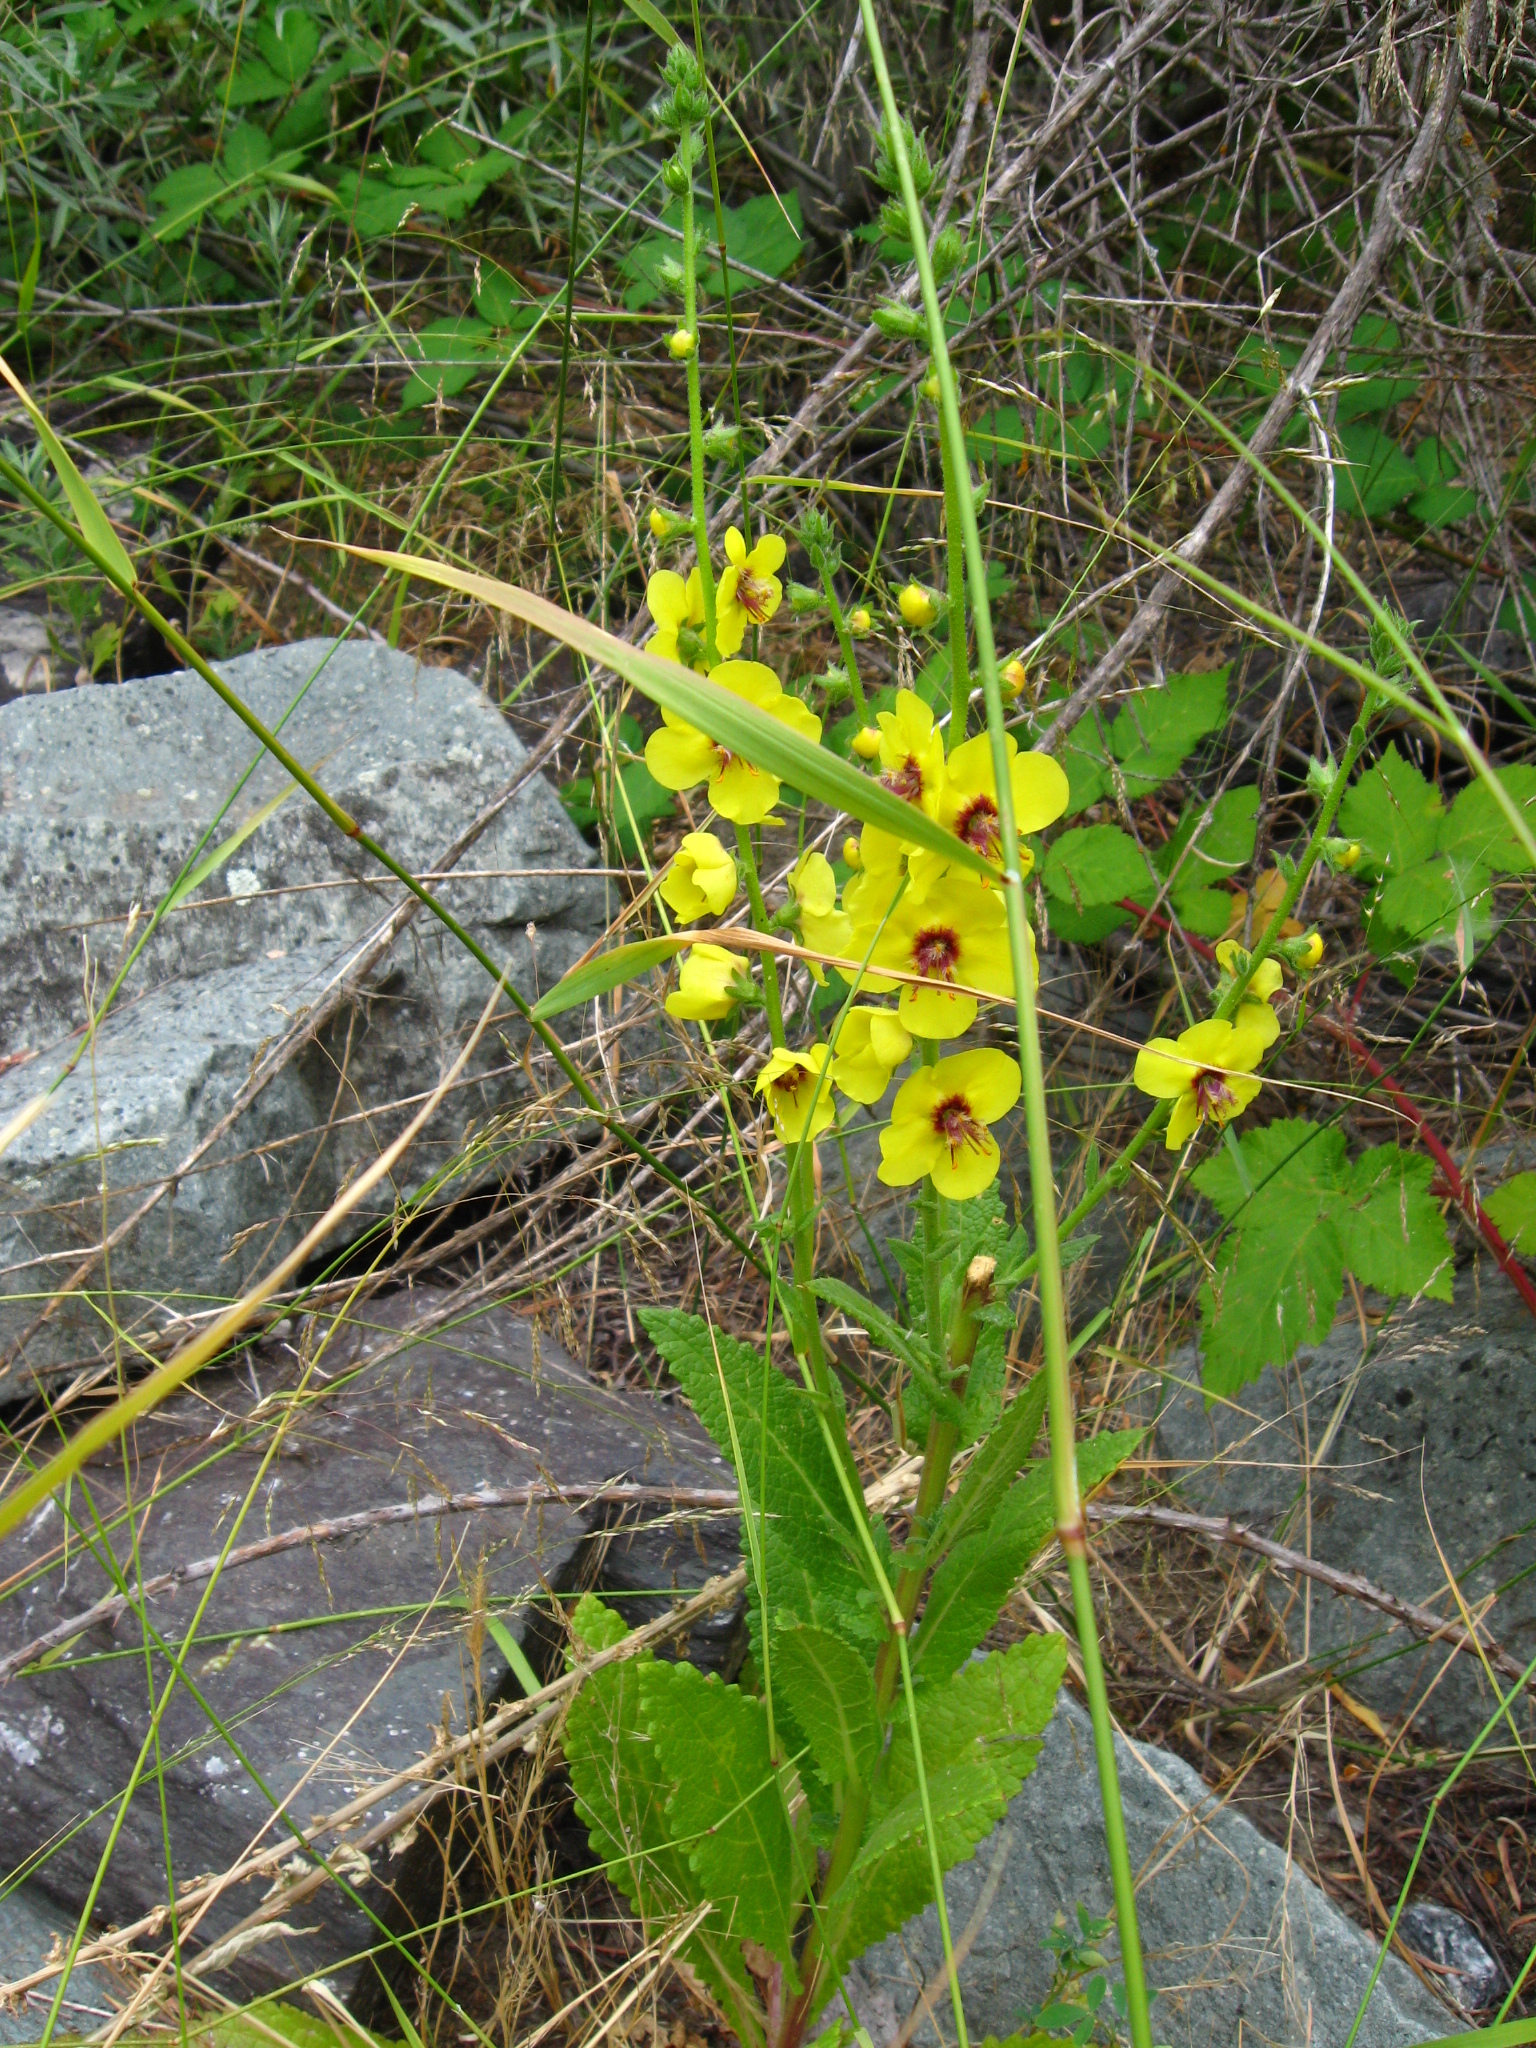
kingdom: Plantae
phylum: Tracheophyta
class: Magnoliopsida
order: Lamiales
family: Scrophulariaceae
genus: Verbascum
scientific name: Verbascum blattaria
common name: Moth mullein
